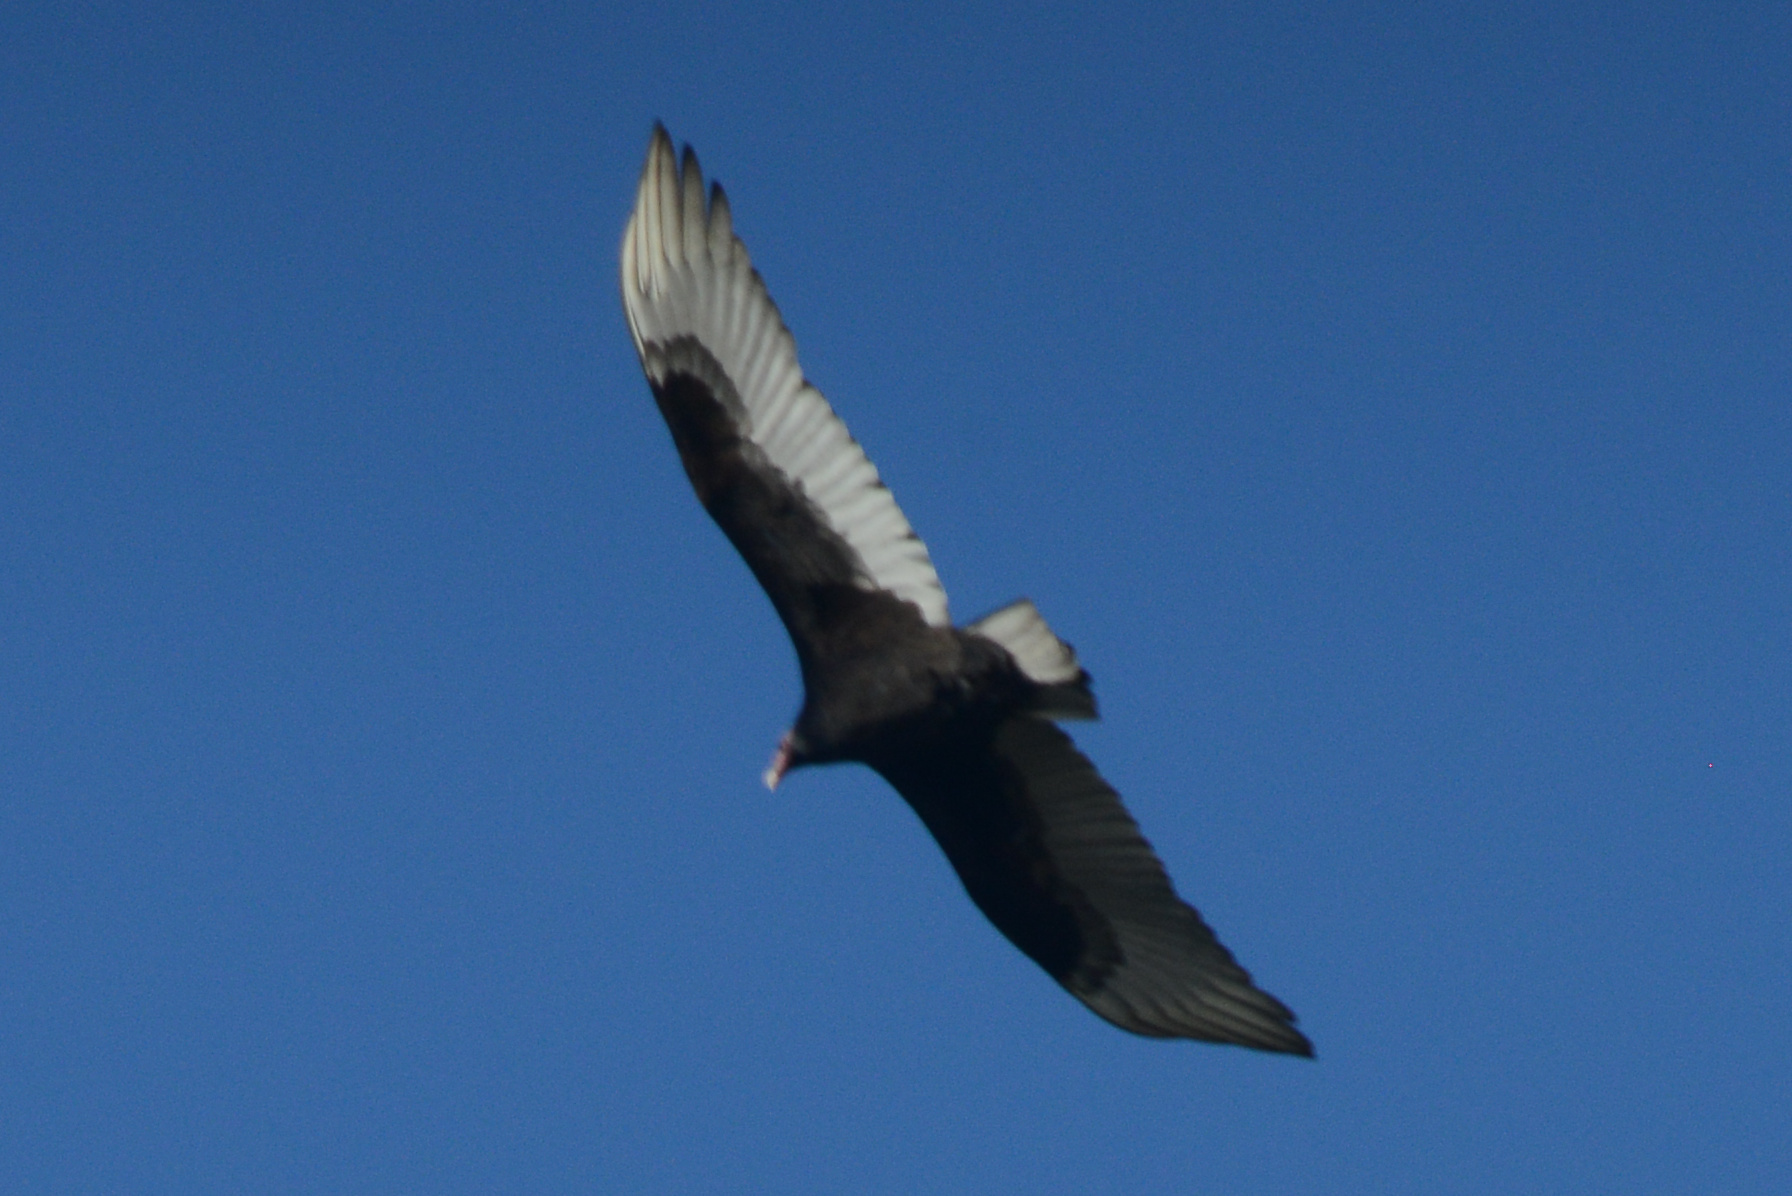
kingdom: Animalia
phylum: Chordata
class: Aves
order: Accipitriformes
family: Cathartidae
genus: Cathartes
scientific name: Cathartes aura
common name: Turkey vulture
